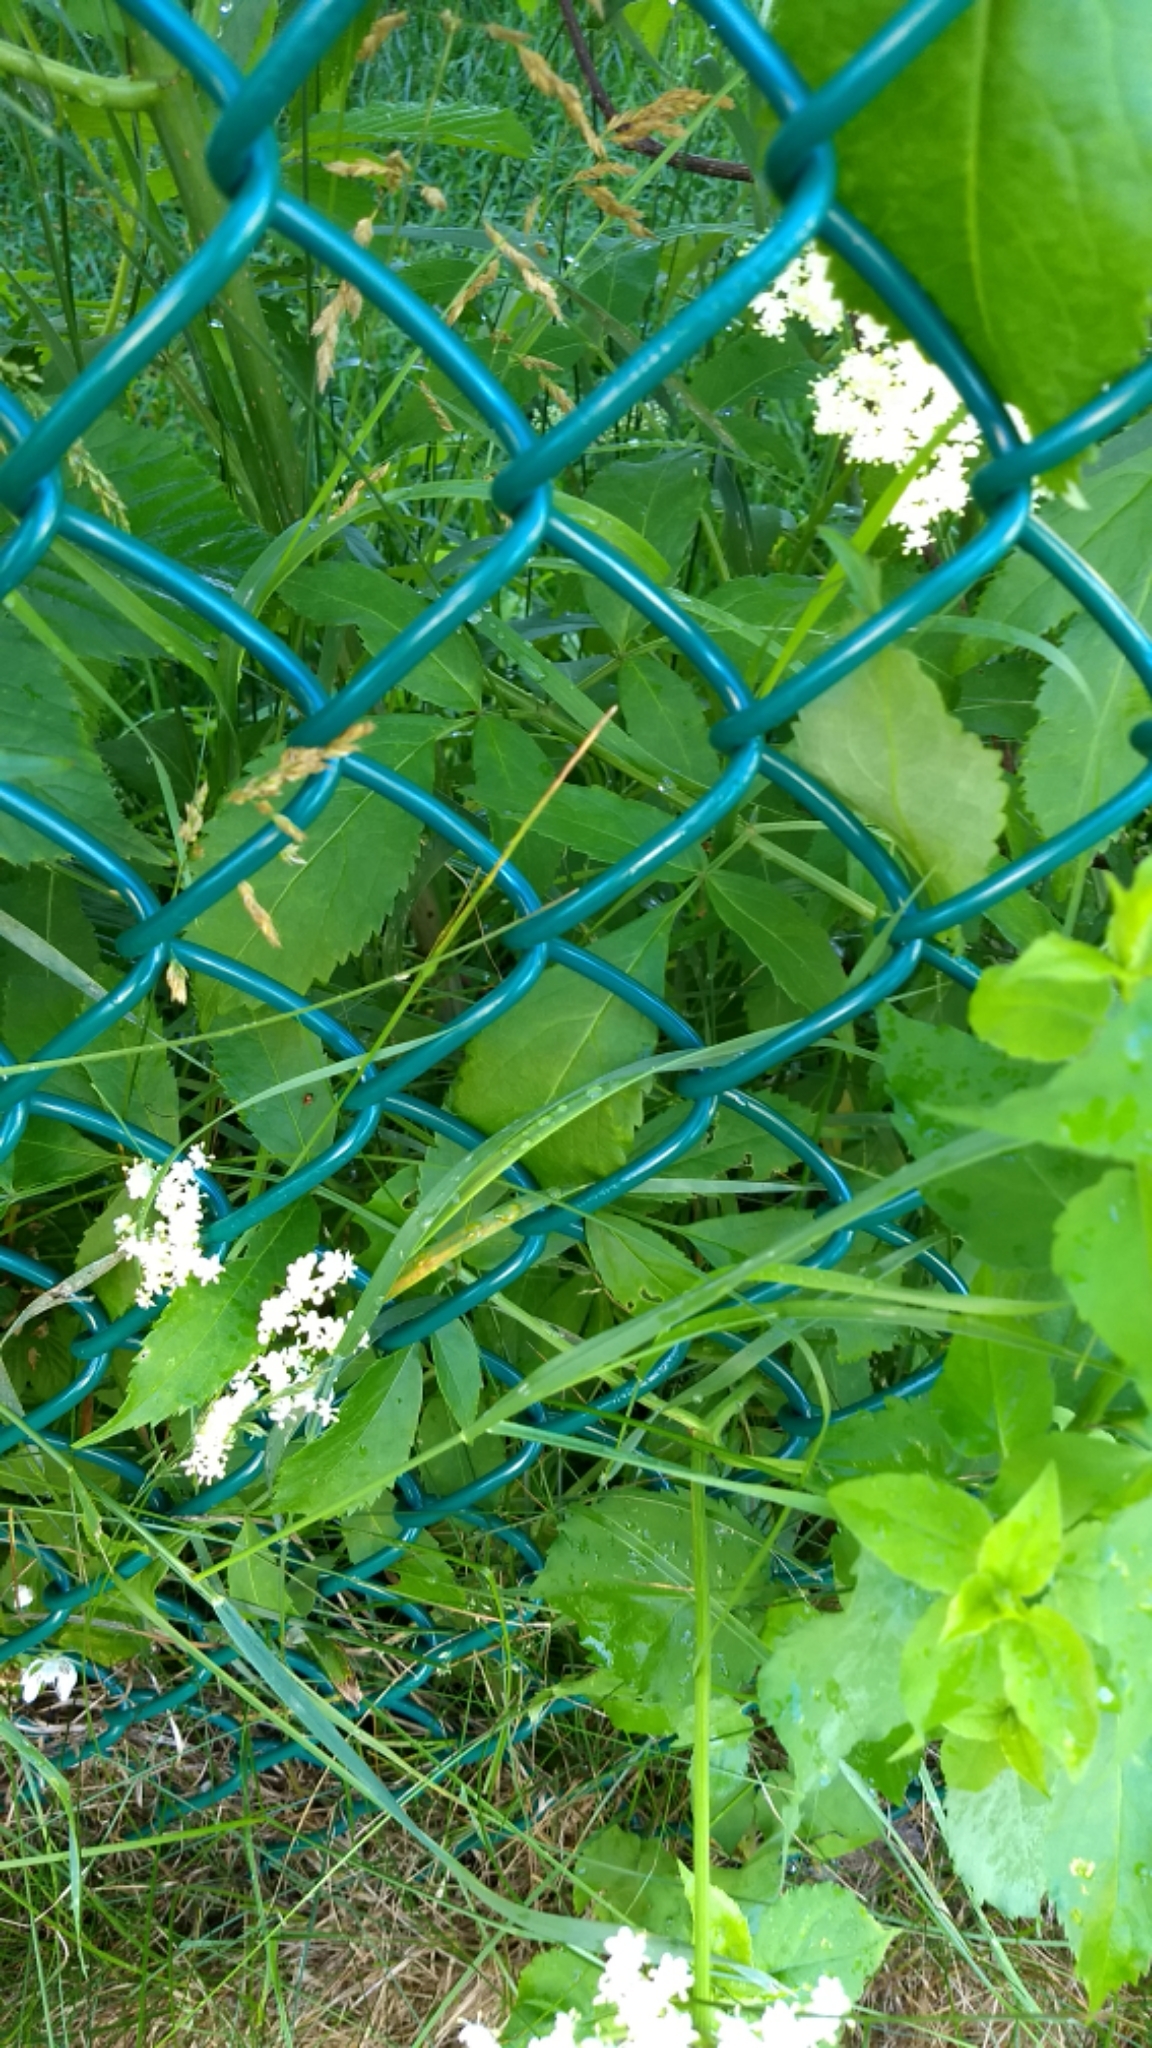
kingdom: Plantae
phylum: Tracheophyta
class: Magnoliopsida
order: Apiales
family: Apiaceae
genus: Aegopodium
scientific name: Aegopodium podagraria
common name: Ground-elder
